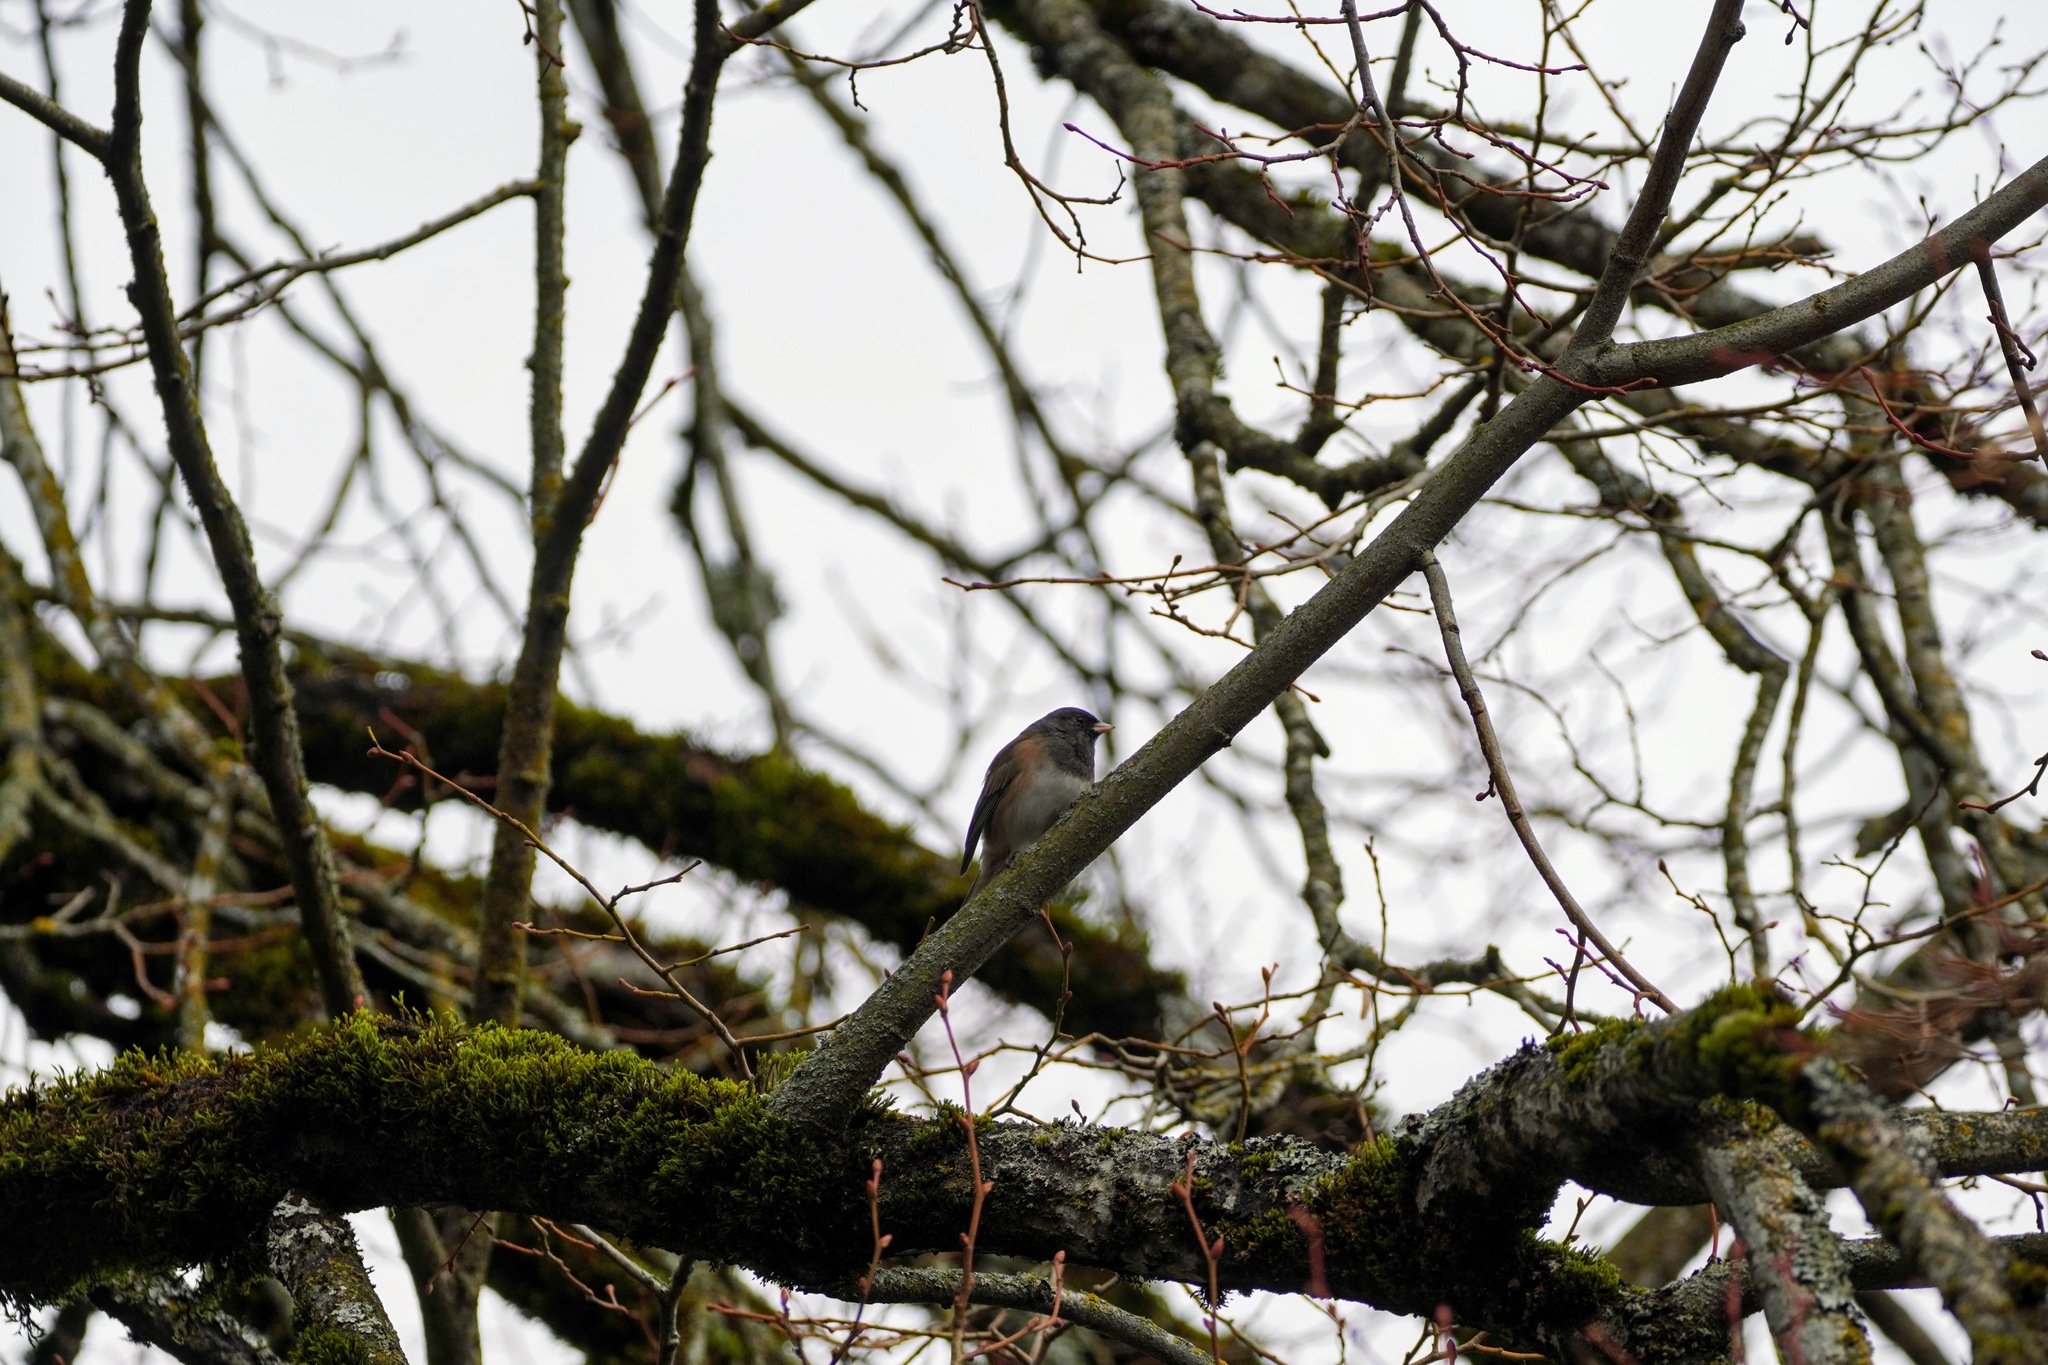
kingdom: Animalia
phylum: Chordata
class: Aves
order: Passeriformes
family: Passerellidae
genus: Junco
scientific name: Junco hyemalis
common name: Dark-eyed junco
